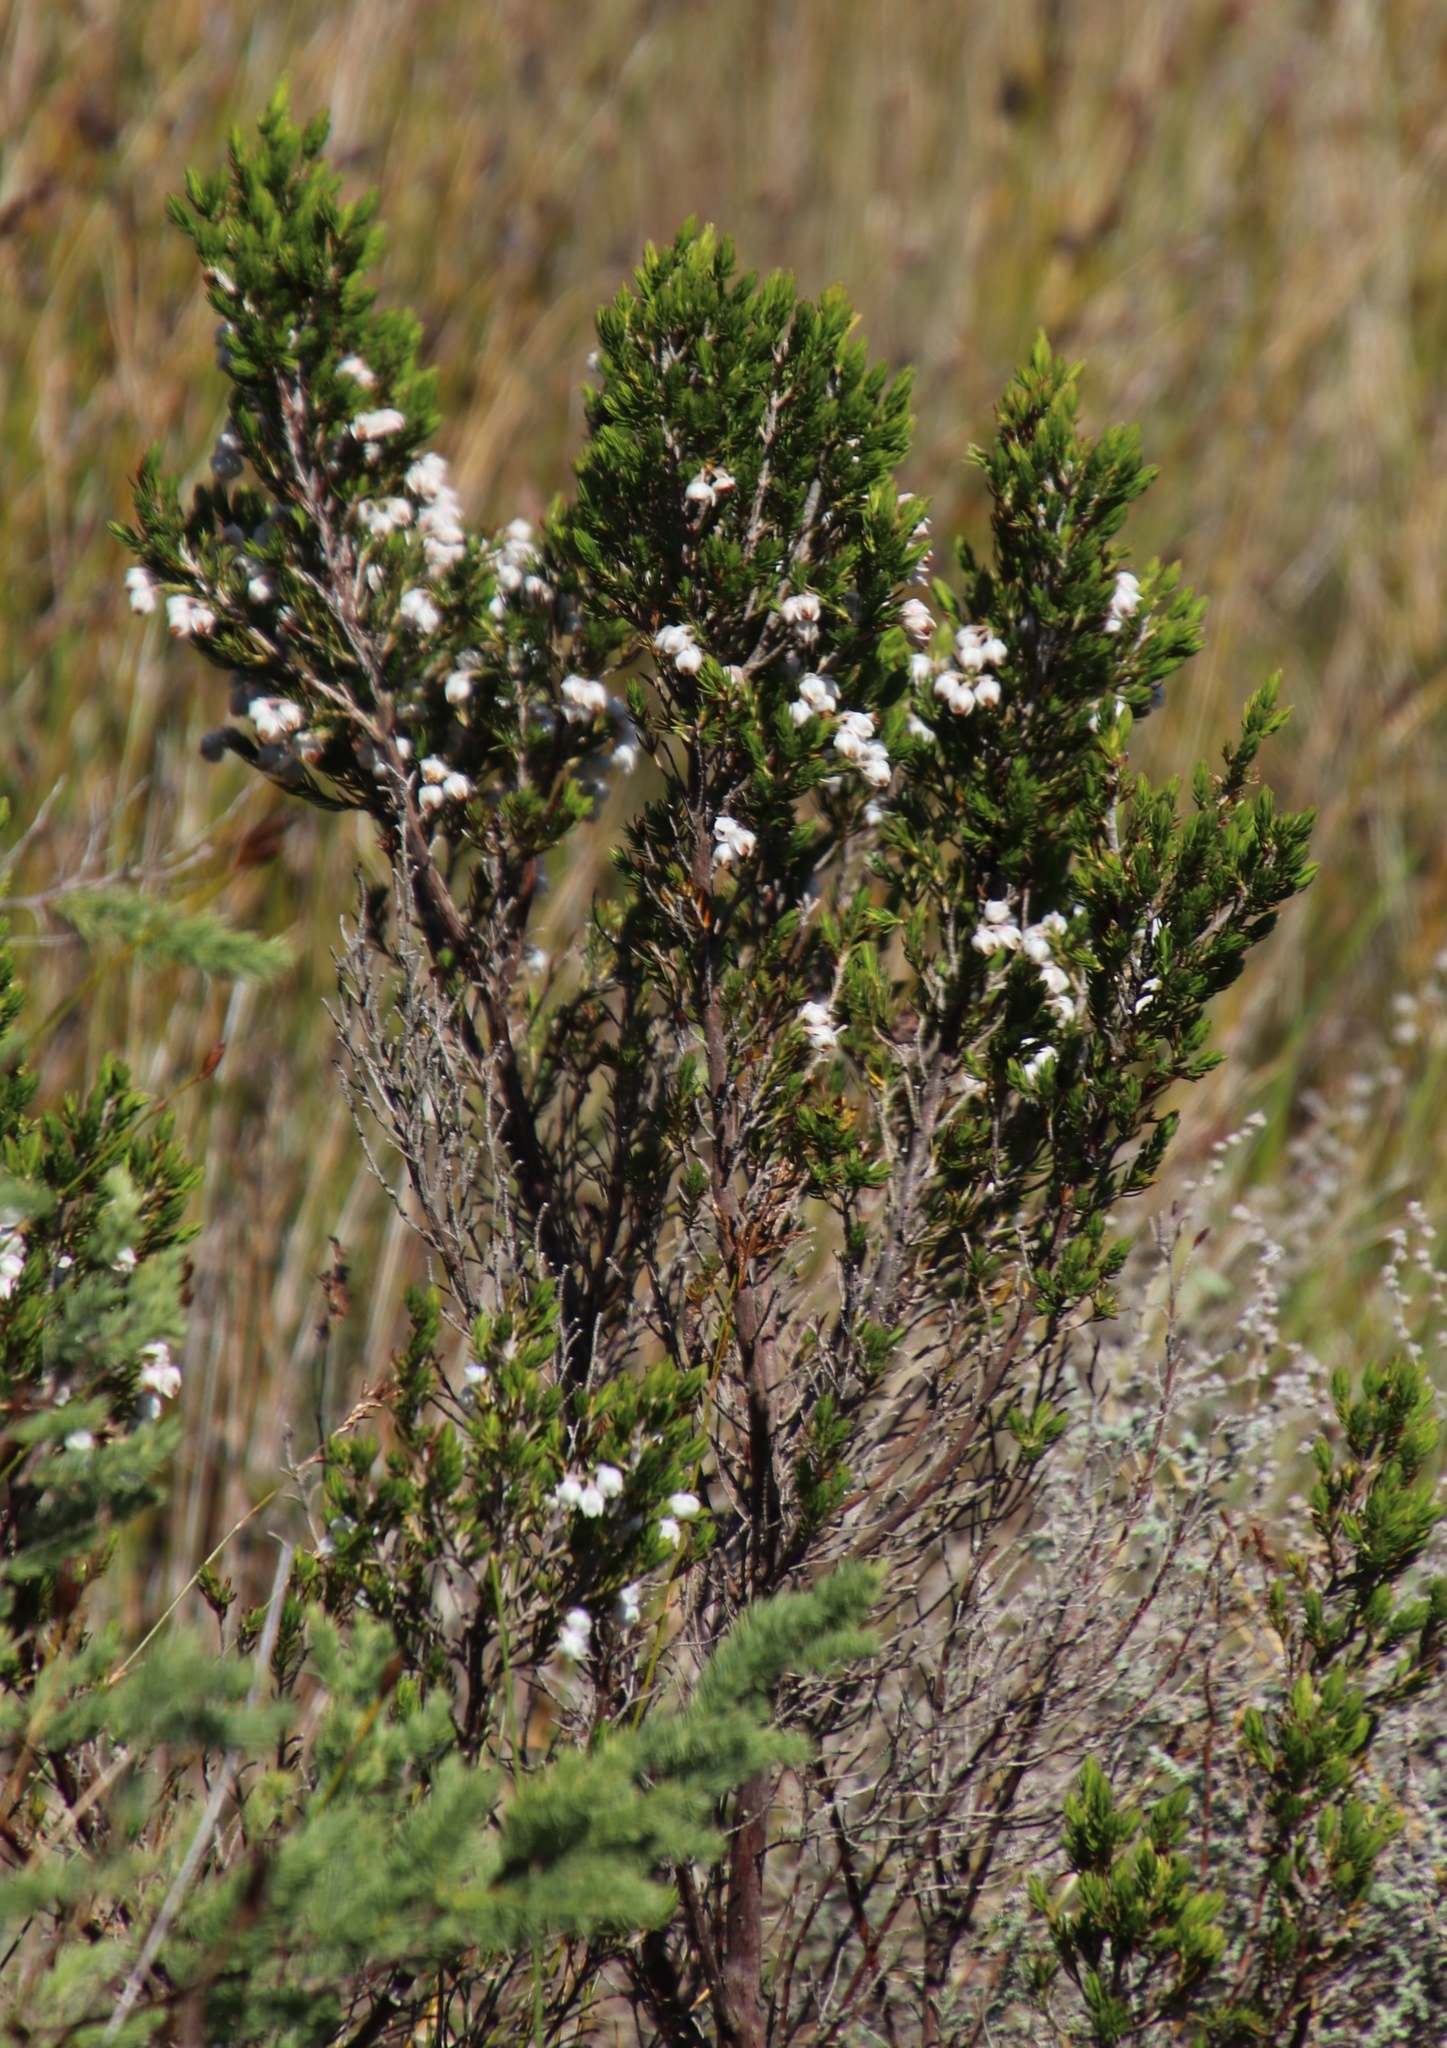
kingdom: Plantae
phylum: Tracheophyta
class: Magnoliopsida
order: Ericales
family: Ericaceae
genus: Erica
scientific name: Erica triflora
